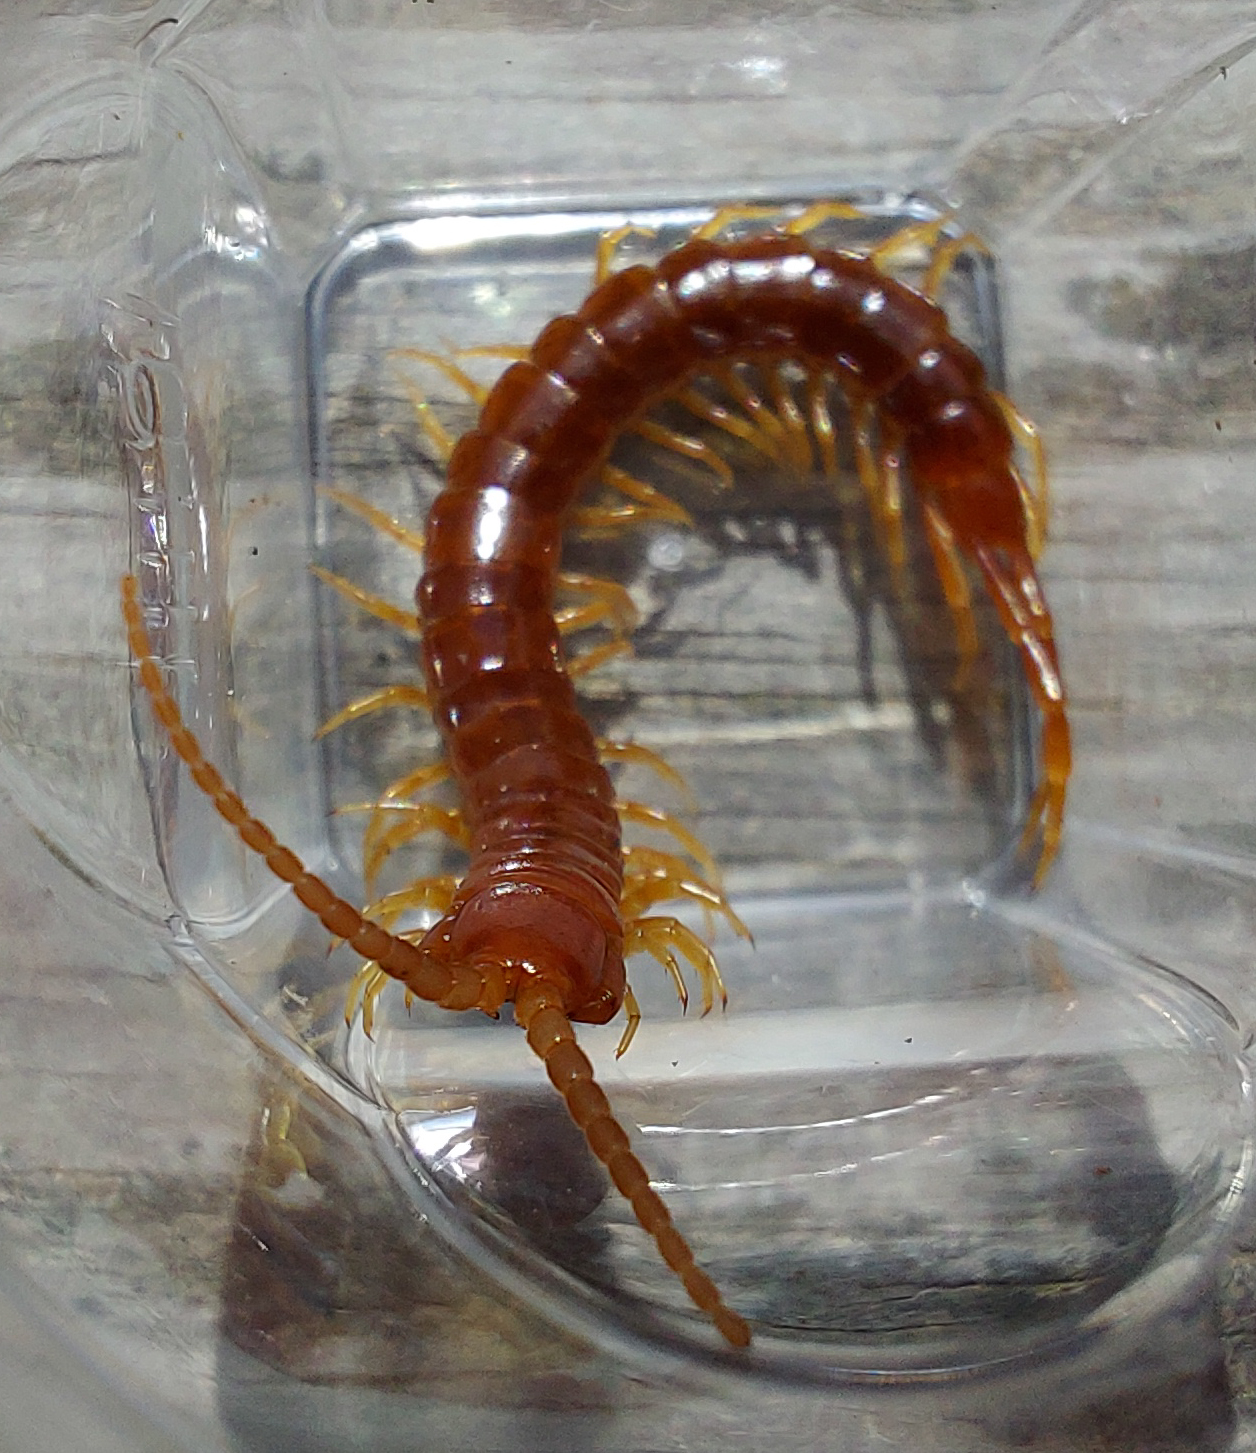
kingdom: Animalia
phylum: Arthropoda
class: Chilopoda
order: Scolopendromorpha
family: Scolopocryptopidae
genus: Scolopocryptops
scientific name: Scolopocryptops sexspinosus
